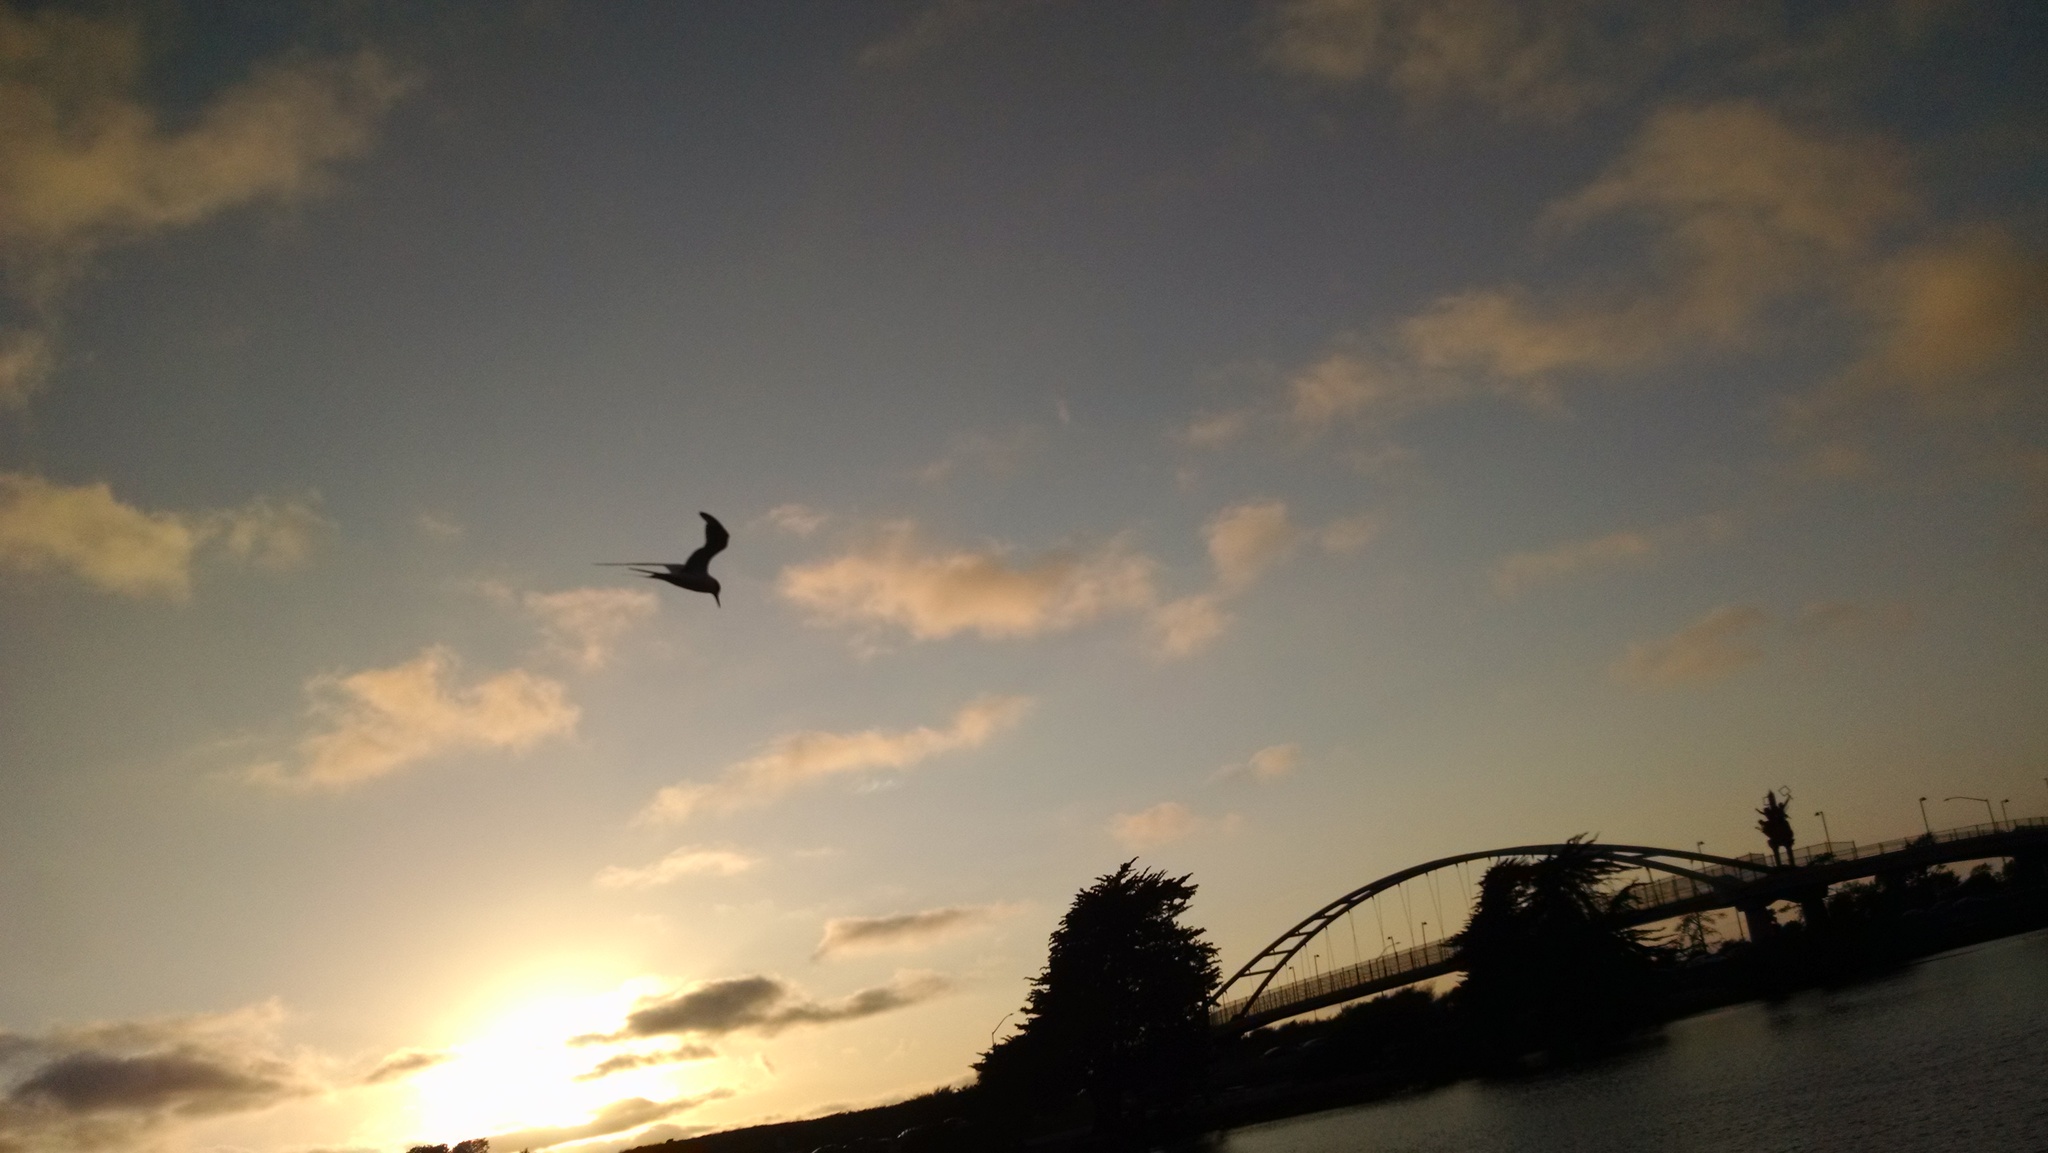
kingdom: Animalia
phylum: Chordata
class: Aves
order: Charadriiformes
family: Laridae
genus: Sterna
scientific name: Sterna
